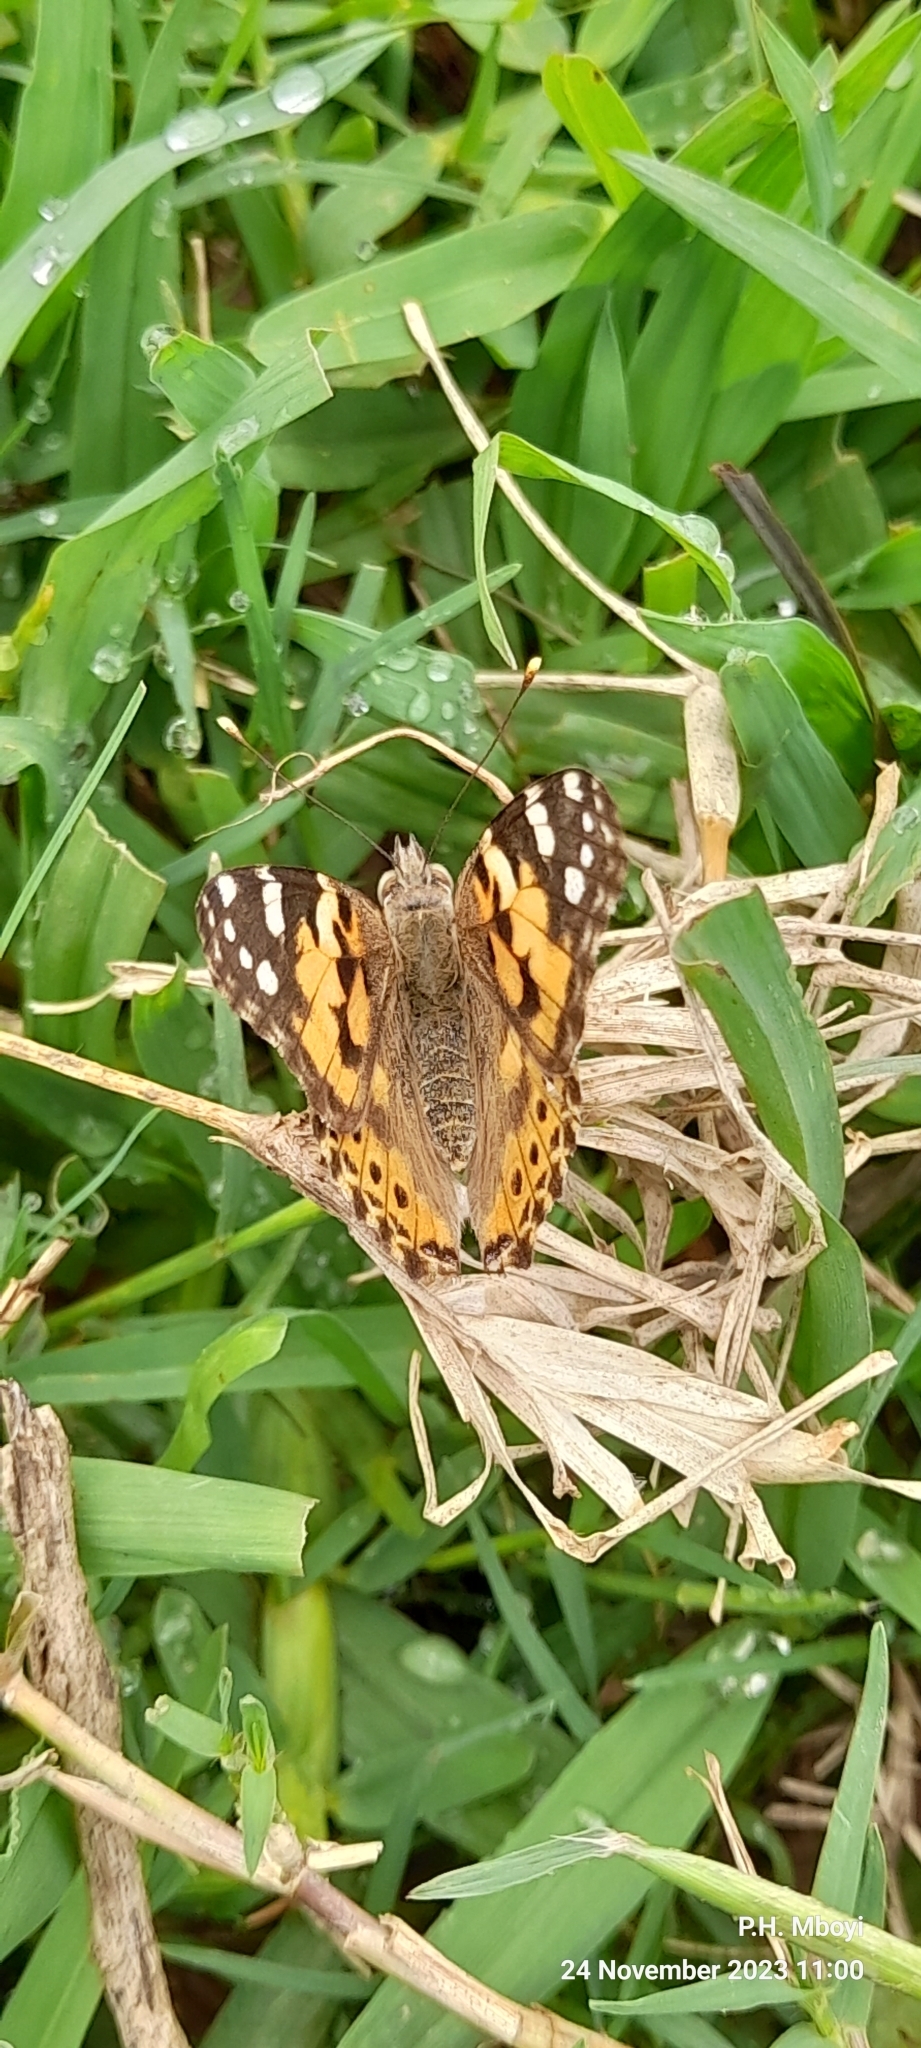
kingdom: Animalia
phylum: Arthropoda
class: Insecta
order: Lepidoptera
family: Nymphalidae
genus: Vanessa
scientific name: Vanessa cardui
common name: Painted lady
